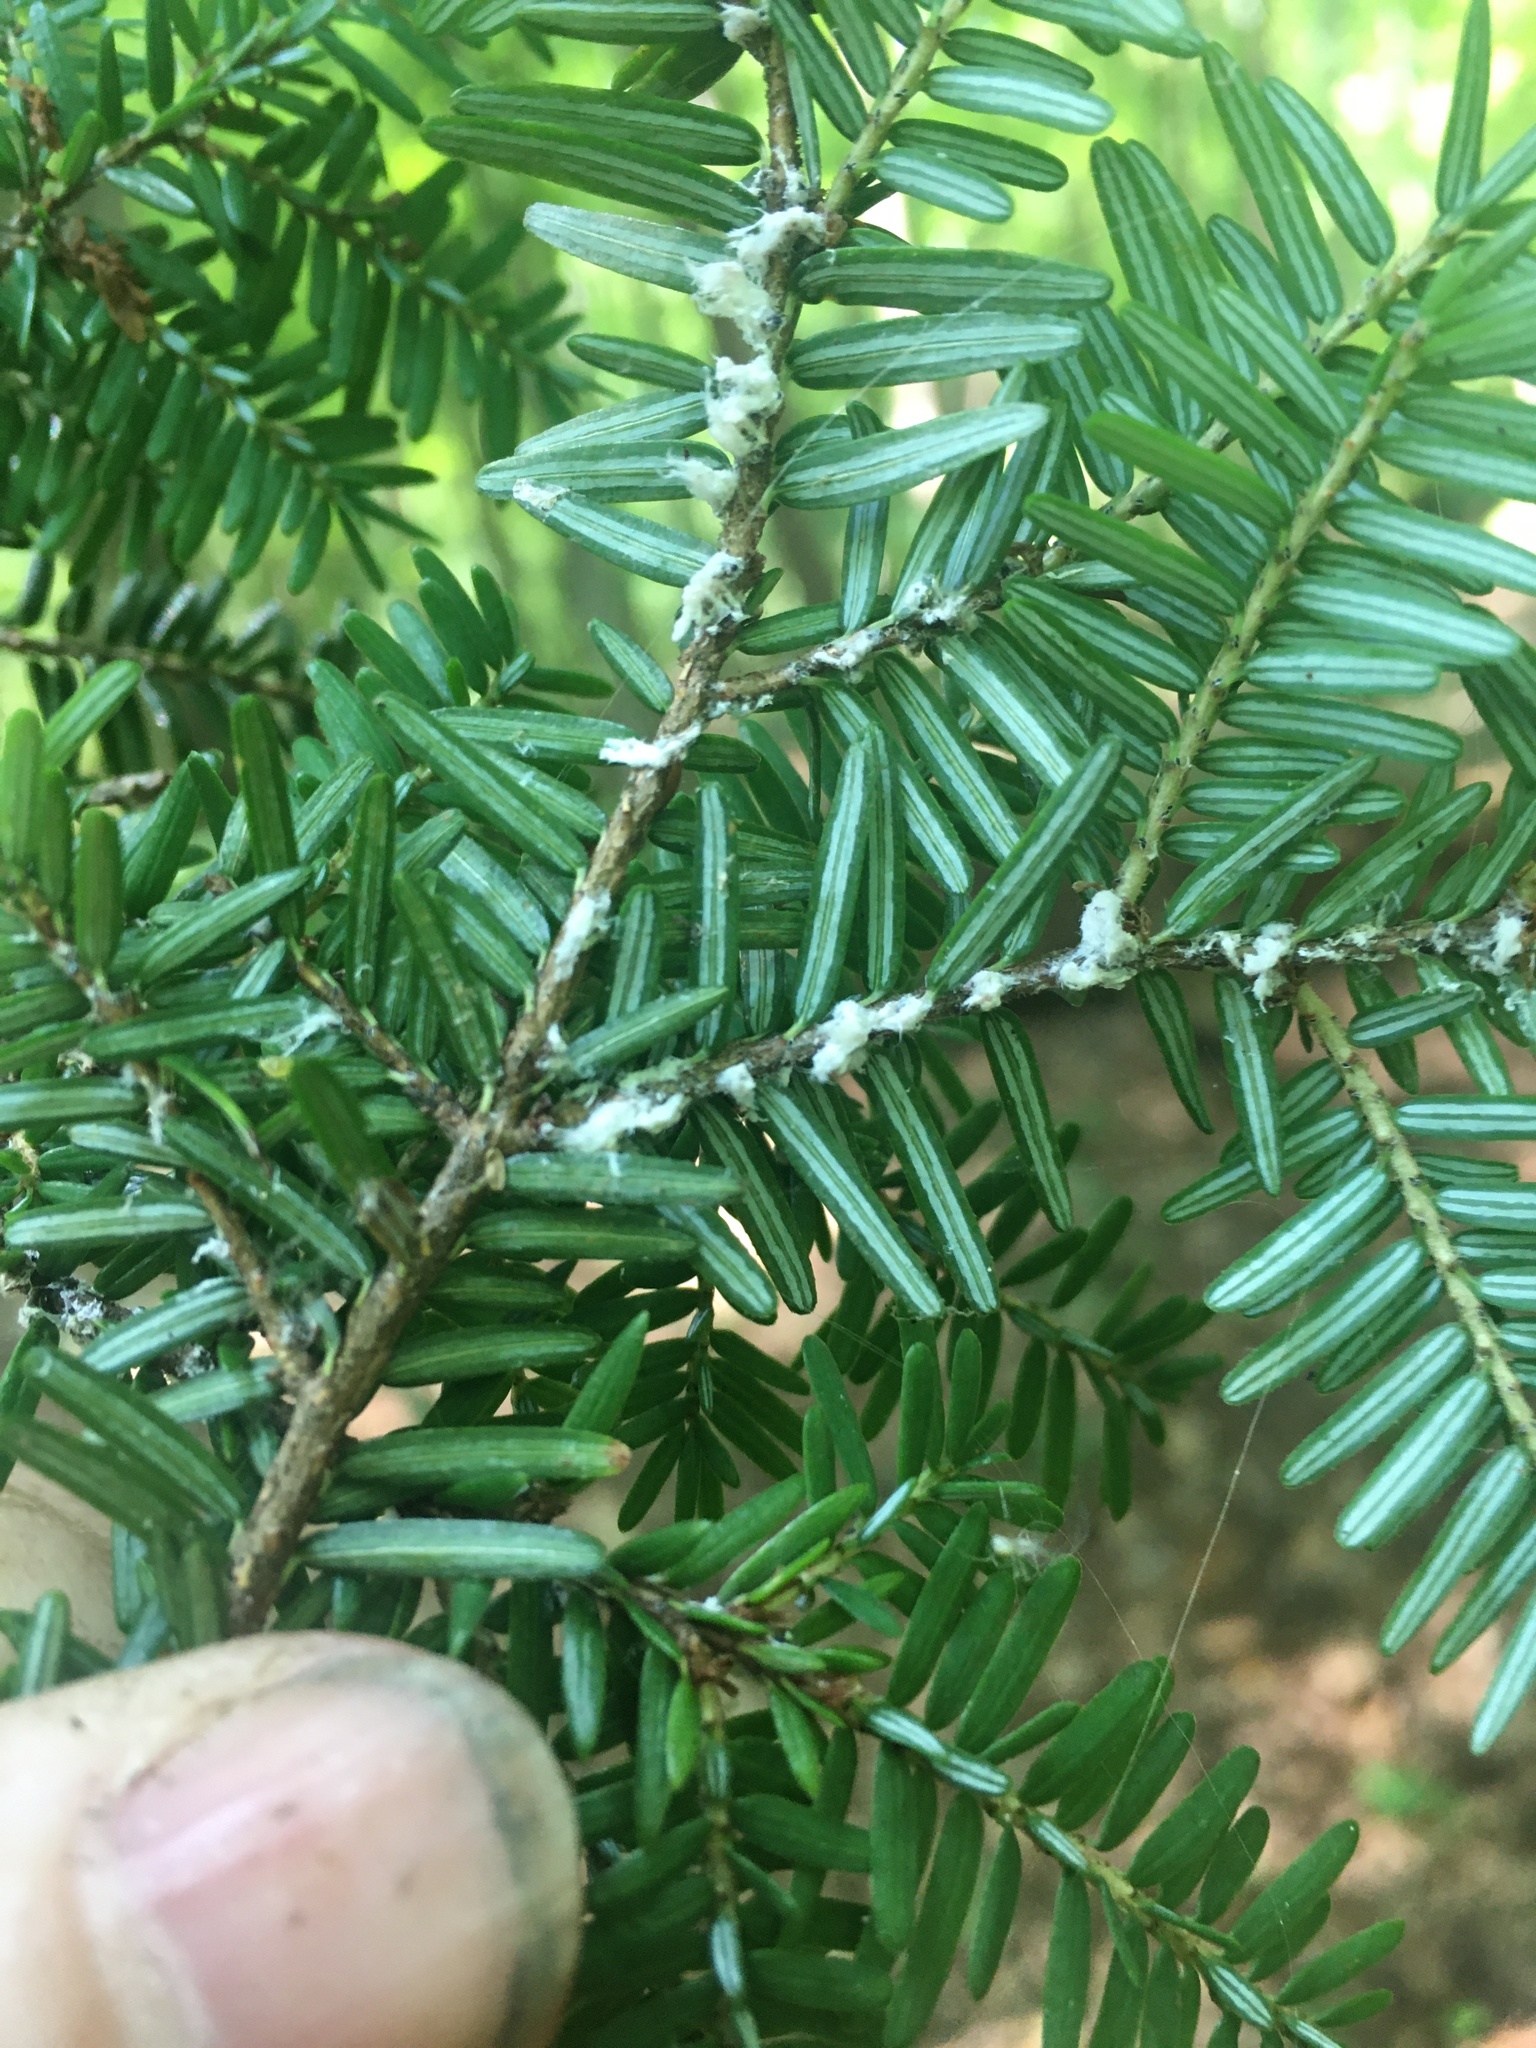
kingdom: Animalia
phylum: Arthropoda
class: Insecta
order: Hemiptera
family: Adelgidae
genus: Adelges
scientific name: Adelges tsugae
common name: Hemlock woolly adelgid
